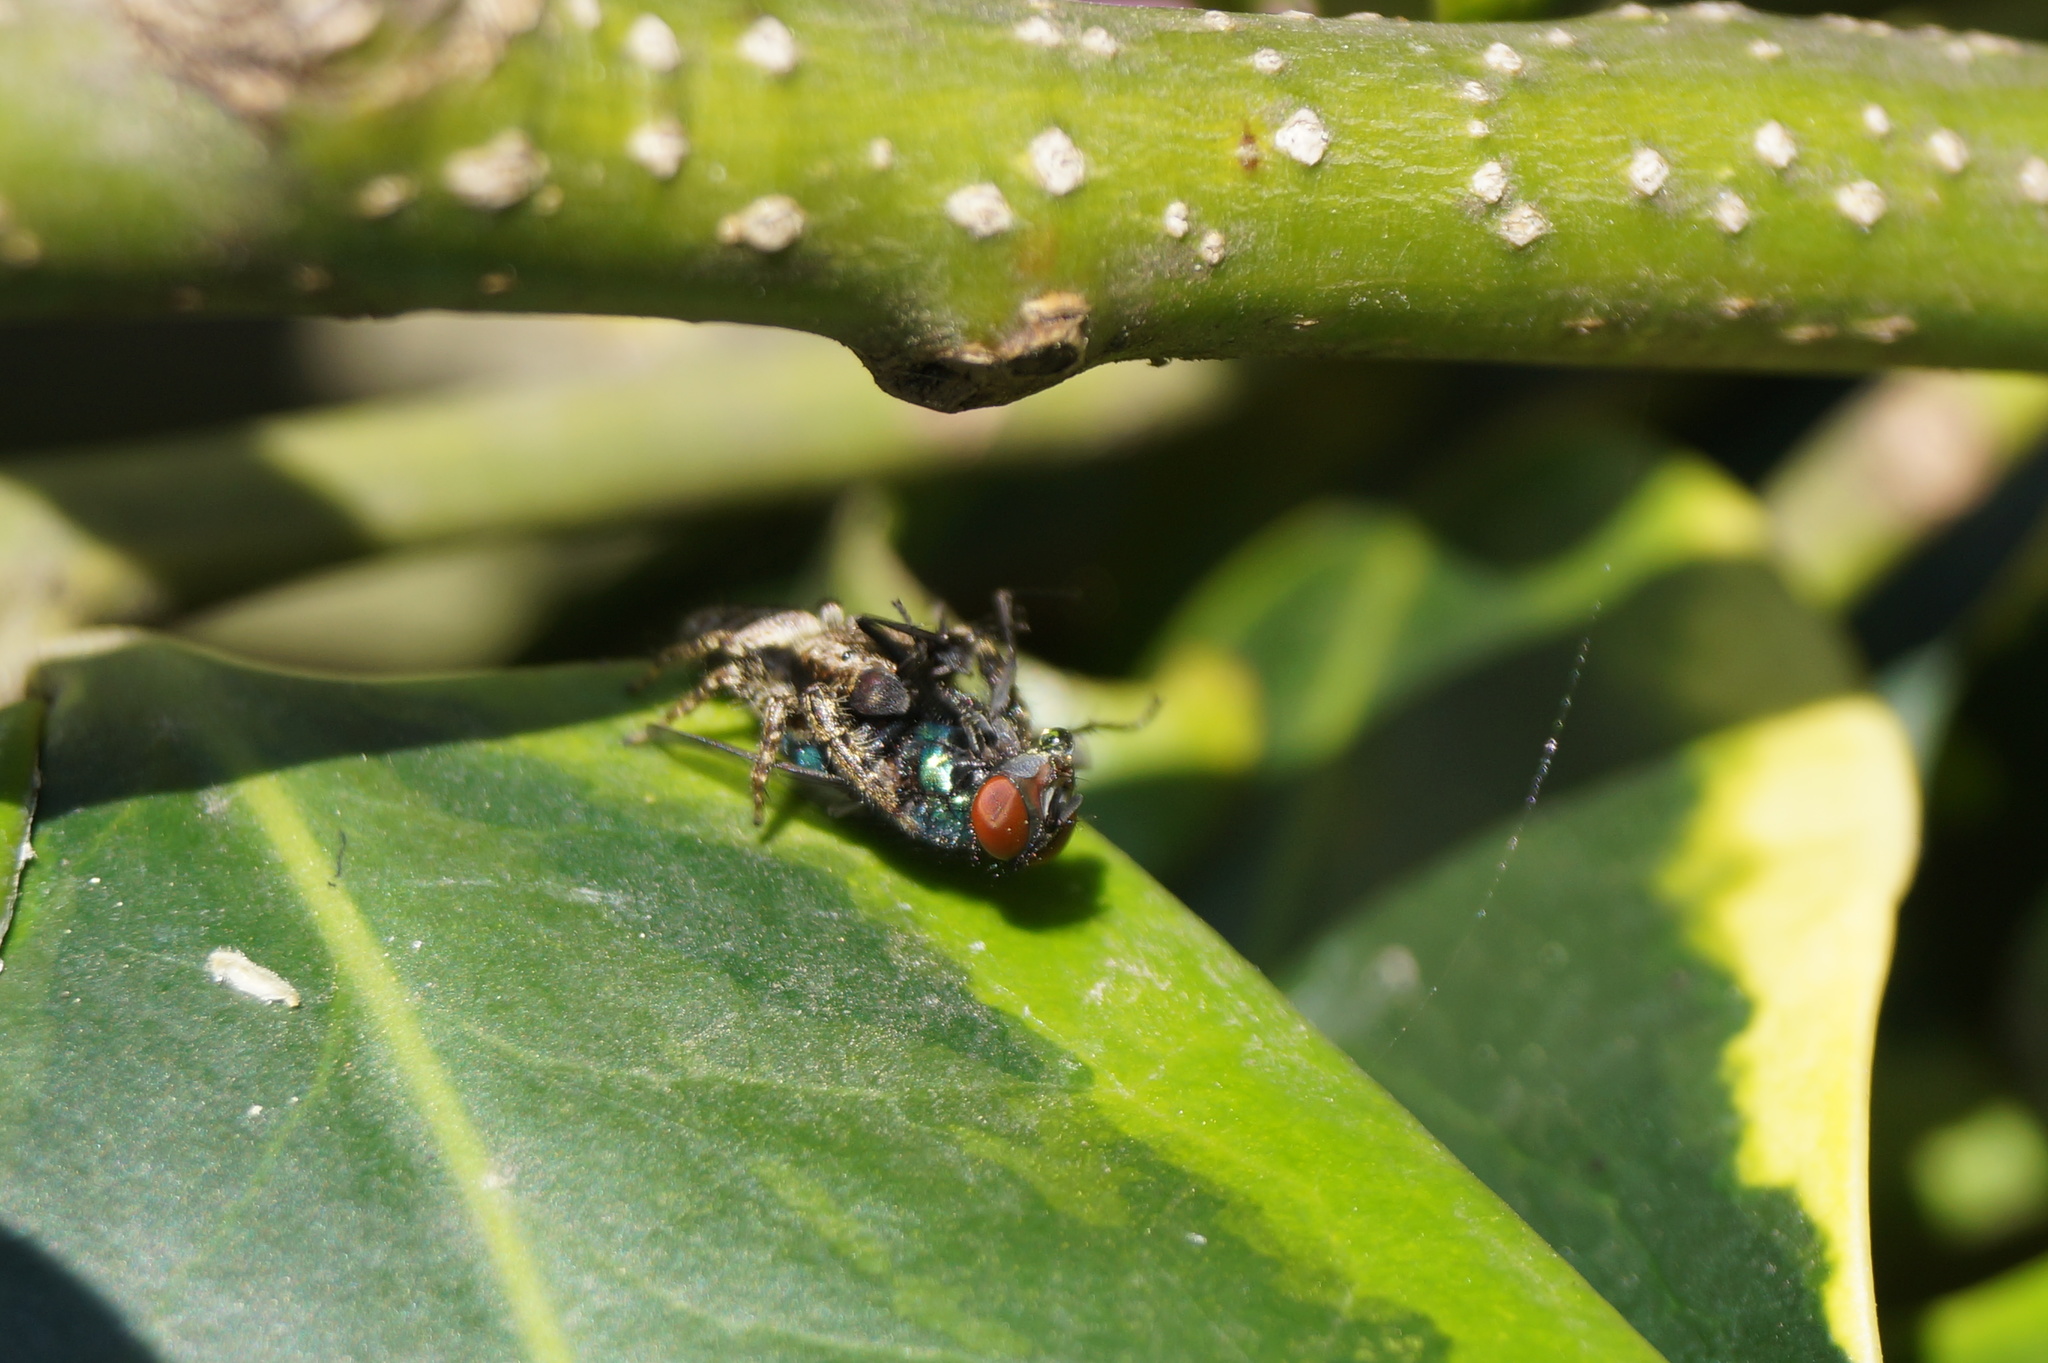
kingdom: Animalia
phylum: Arthropoda
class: Arachnida
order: Araneae
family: Salticidae
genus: Marpissa
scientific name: Marpissa muscosa
